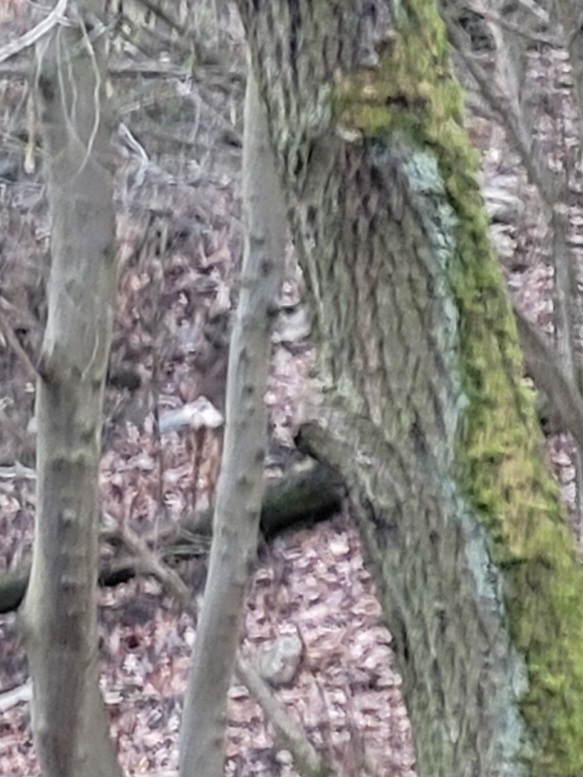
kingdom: Animalia
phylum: Chordata
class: Mammalia
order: Artiodactyla
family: Cervidae
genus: Capreolus
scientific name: Capreolus capreolus
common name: Western roe deer
